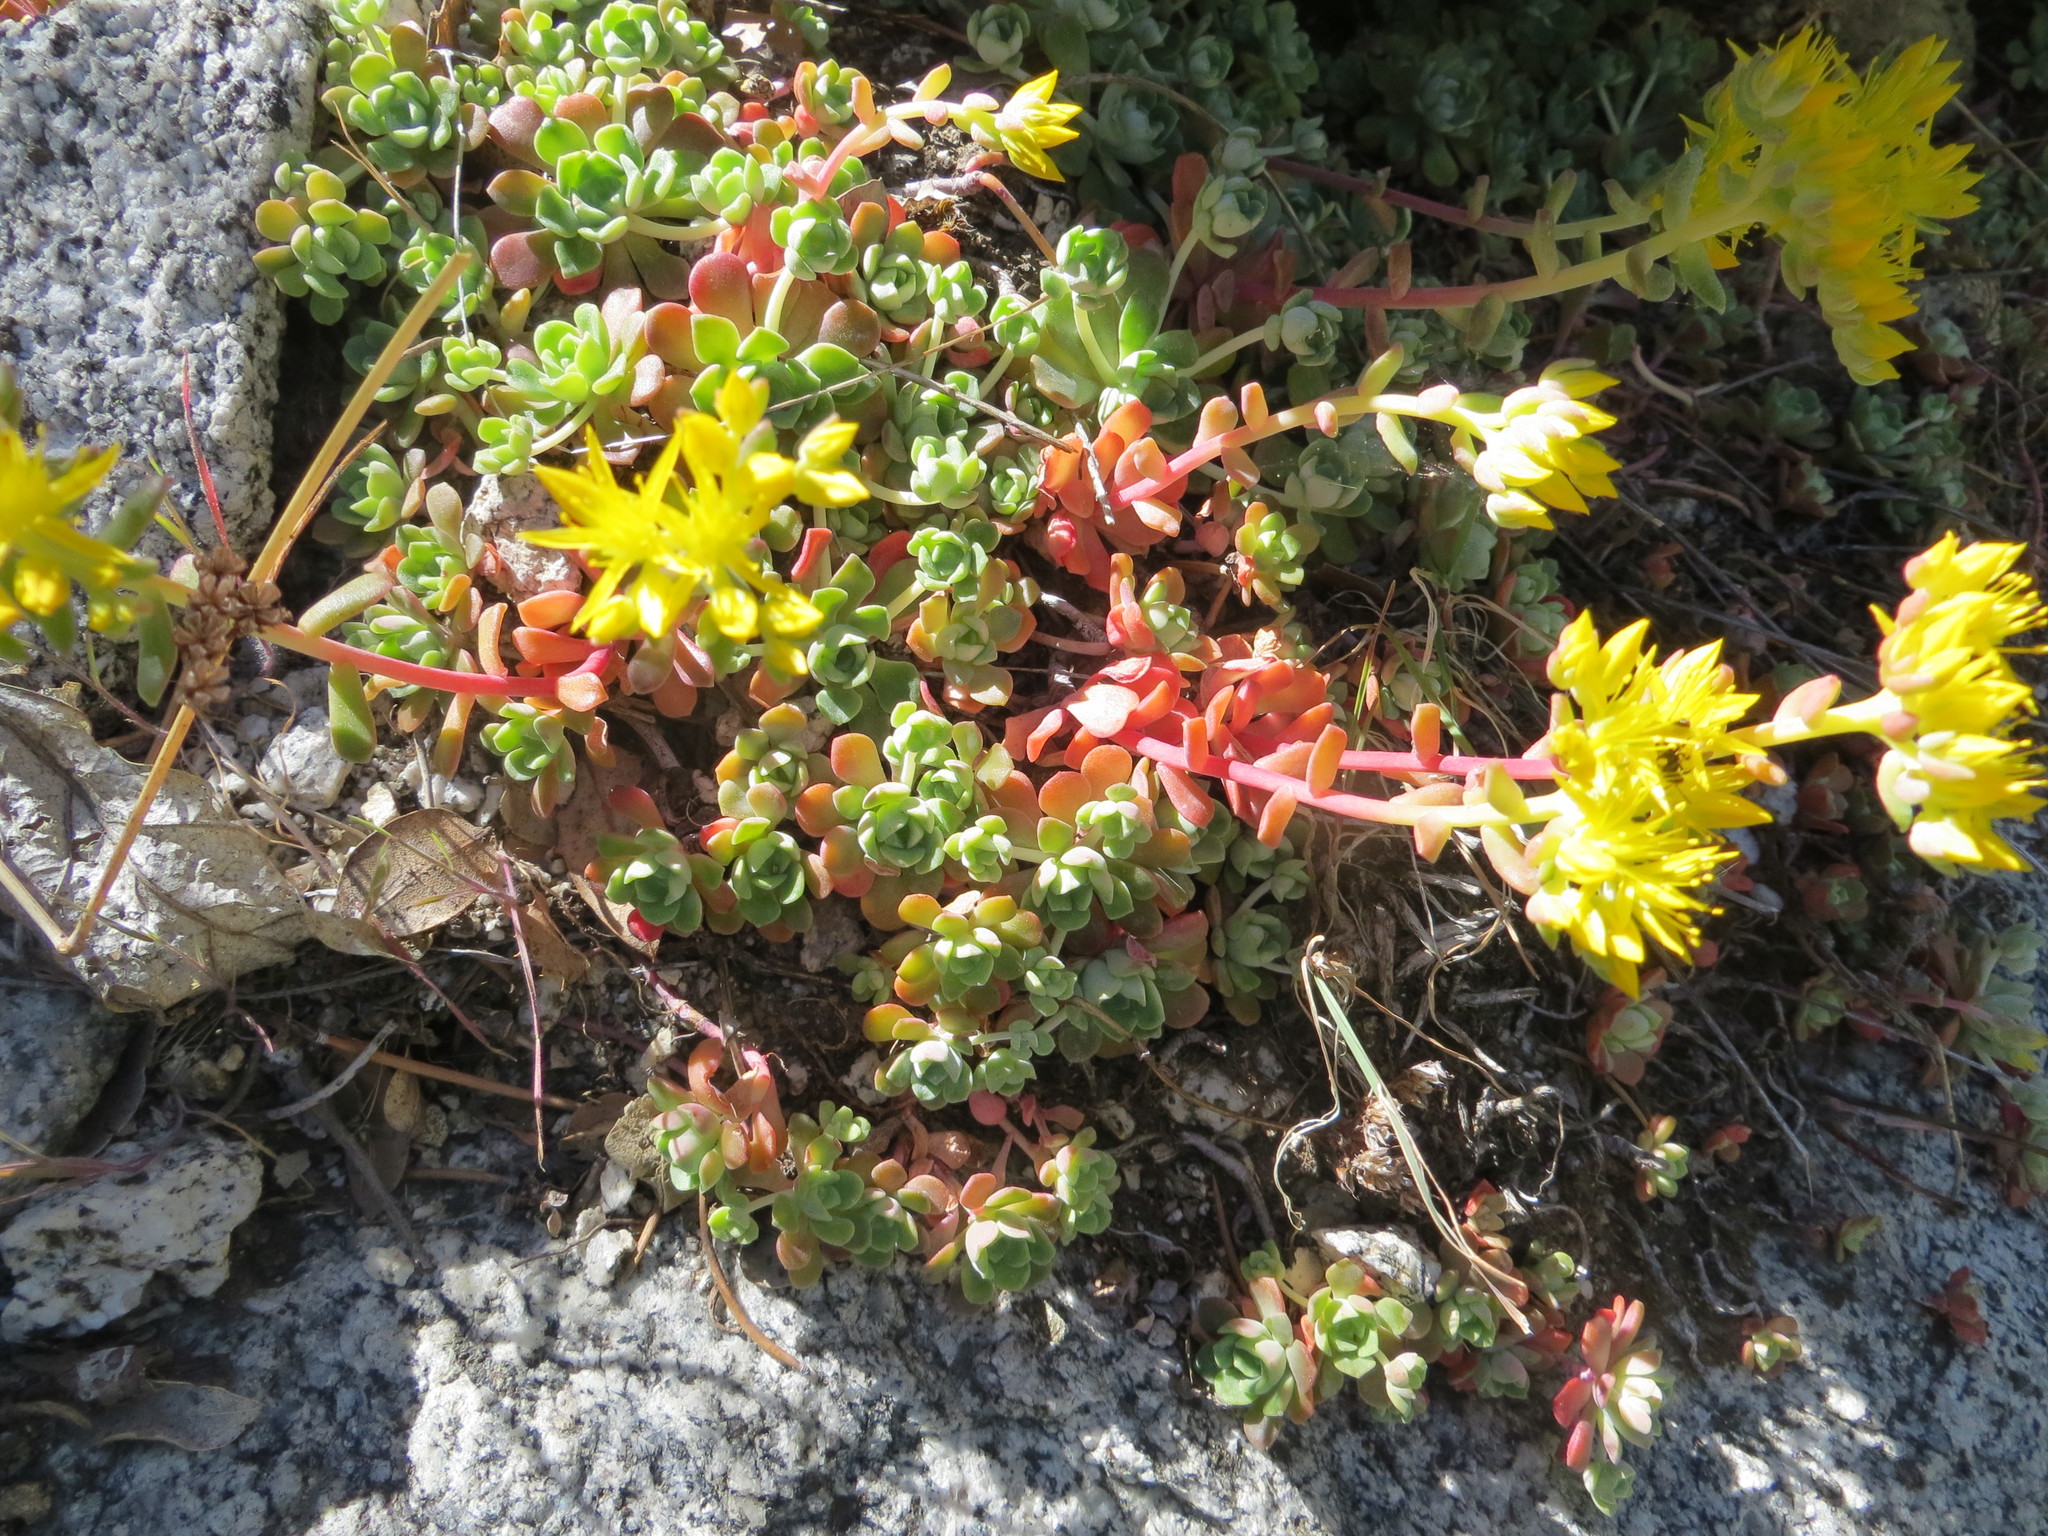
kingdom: Plantae
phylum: Tracheophyta
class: Magnoliopsida
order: Saxifragales
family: Crassulaceae
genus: Sedum
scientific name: Sedum spathulifolium
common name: Colorado stonecrop
